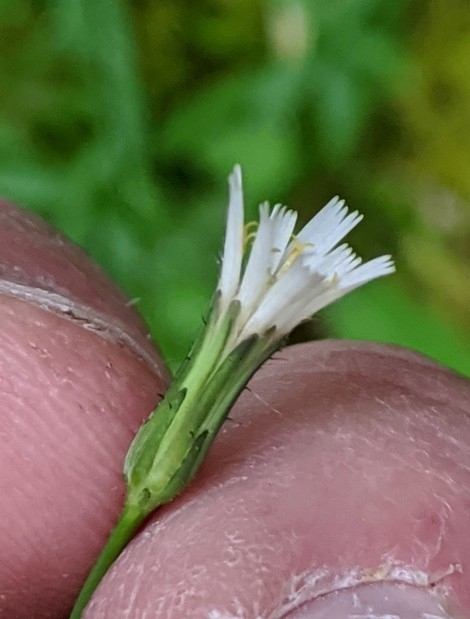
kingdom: Plantae
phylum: Tracheophyta
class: Magnoliopsida
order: Asterales
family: Asteraceae
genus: Hieracium
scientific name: Hieracium albiflorum
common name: White hawkweed
